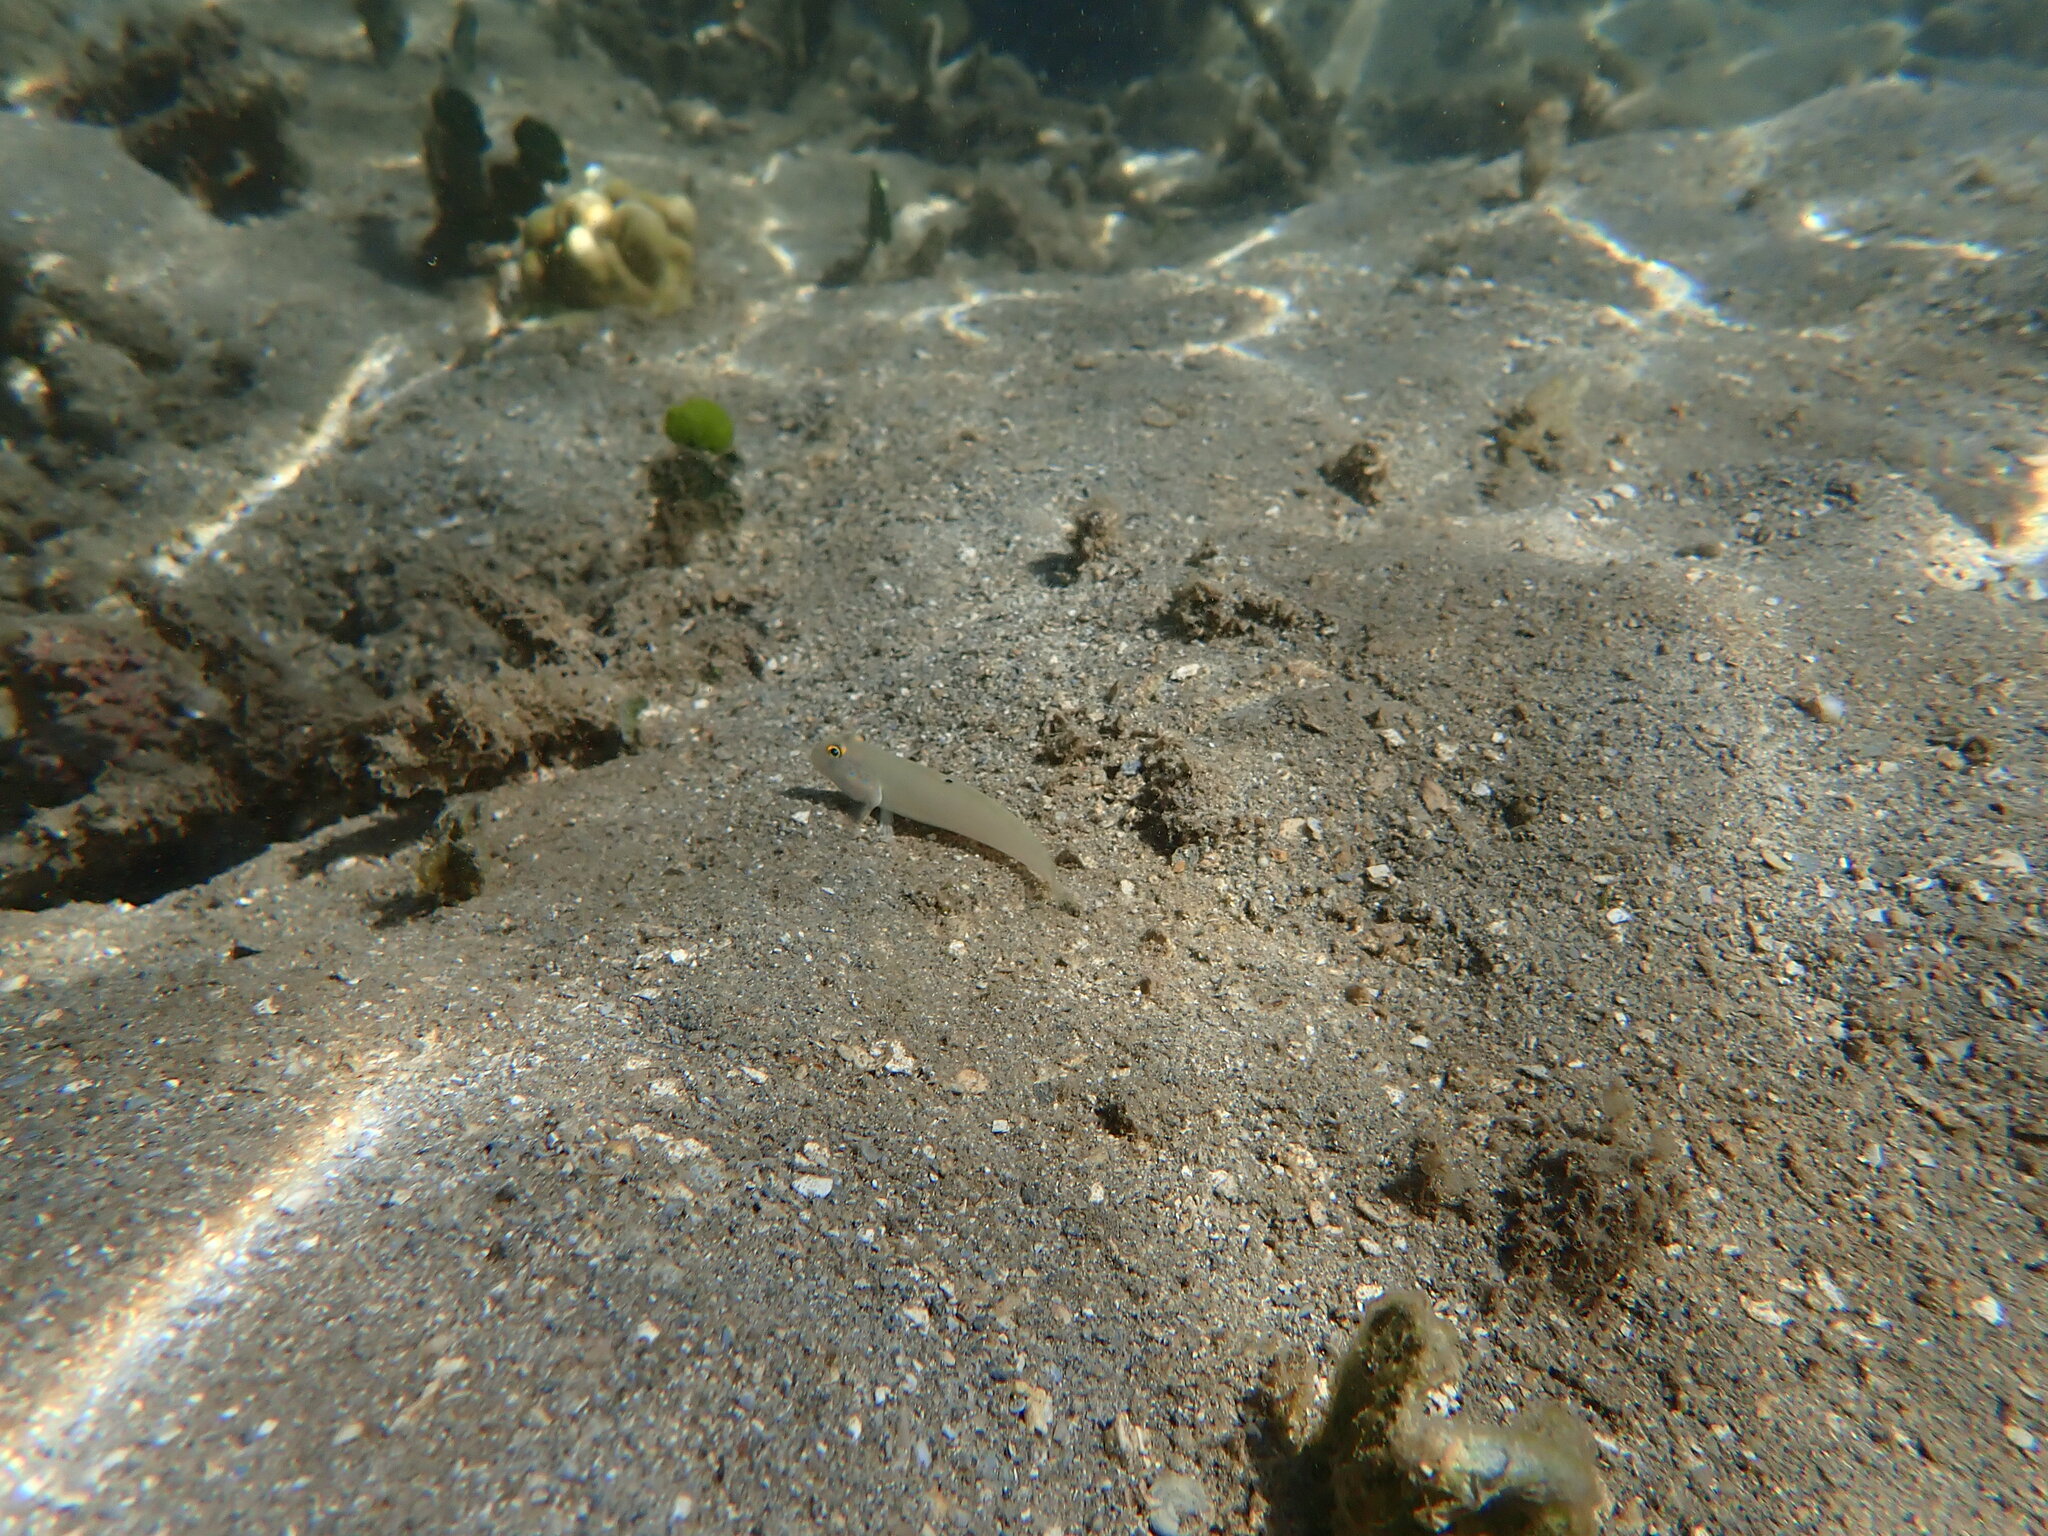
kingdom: Animalia
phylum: Chordata
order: Perciformes
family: Gobiidae
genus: Valenciennea
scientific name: Valenciennea sexguttata
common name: Sixspot goby
